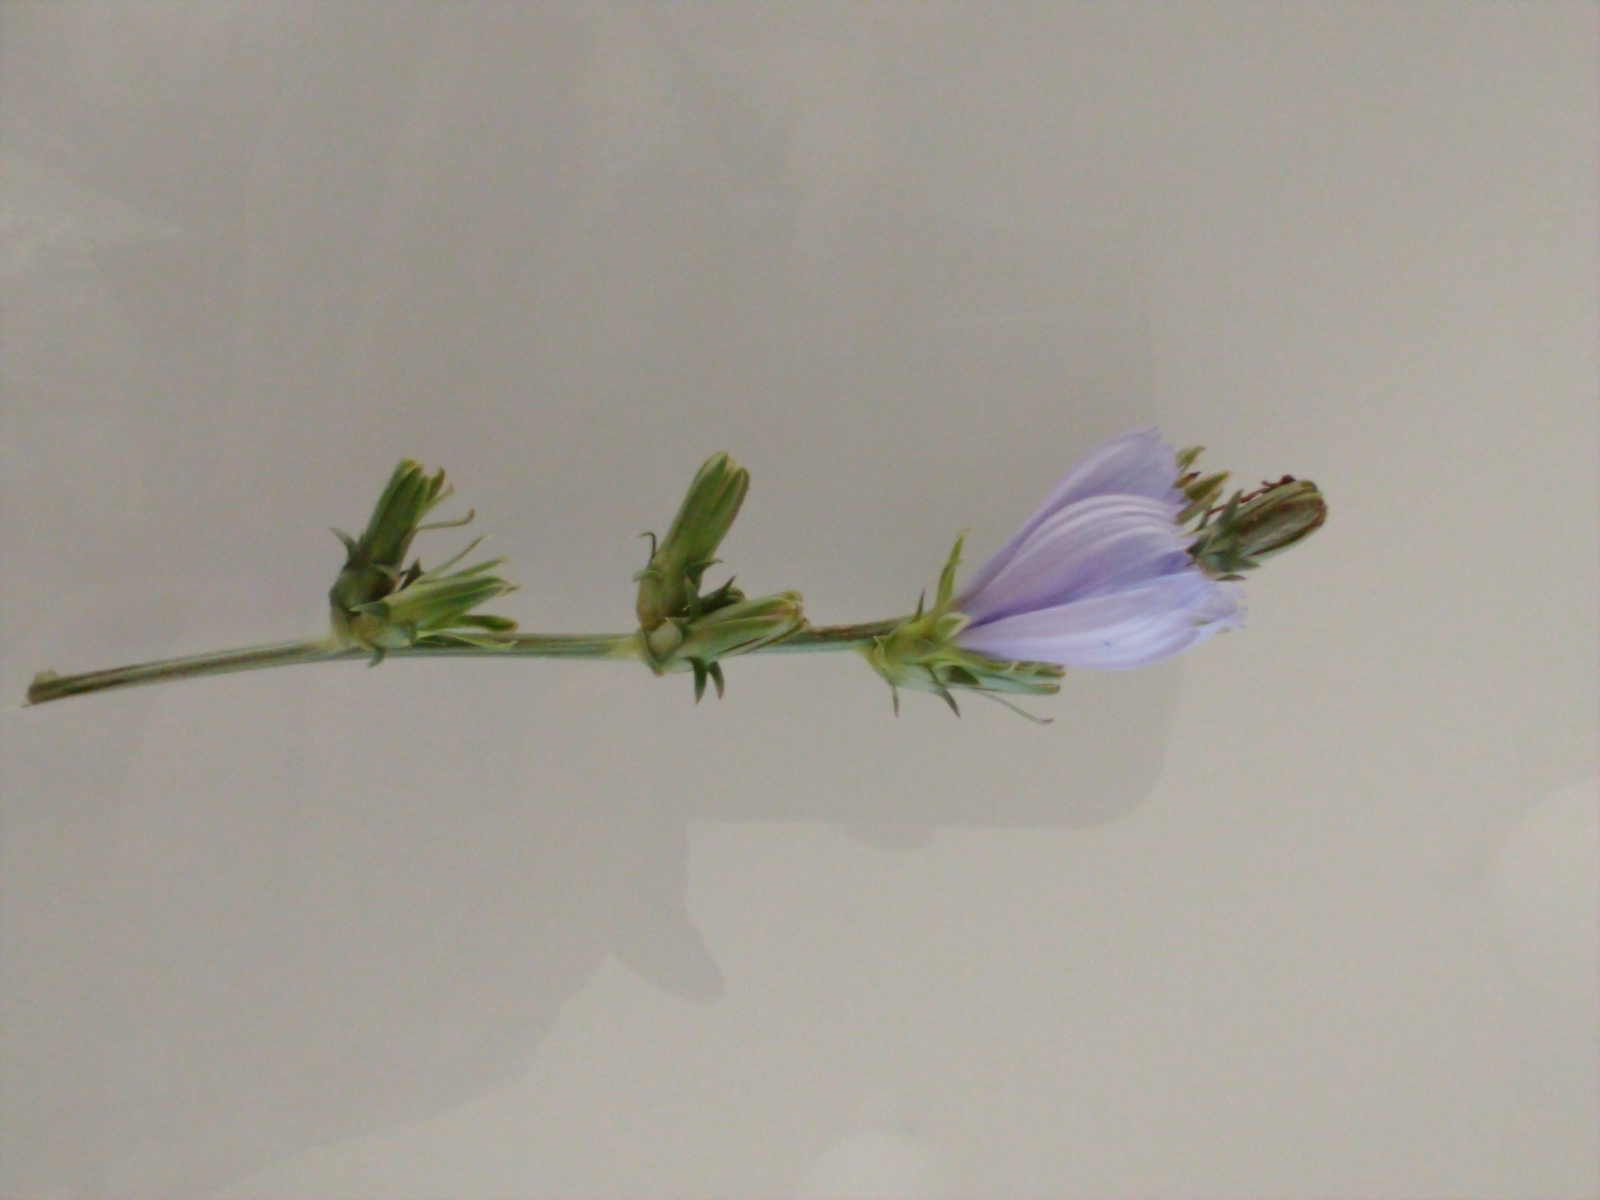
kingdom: Plantae
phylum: Tracheophyta
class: Magnoliopsida
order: Asterales
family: Asteraceae
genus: Cichorium
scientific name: Cichorium intybus
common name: Chicory
